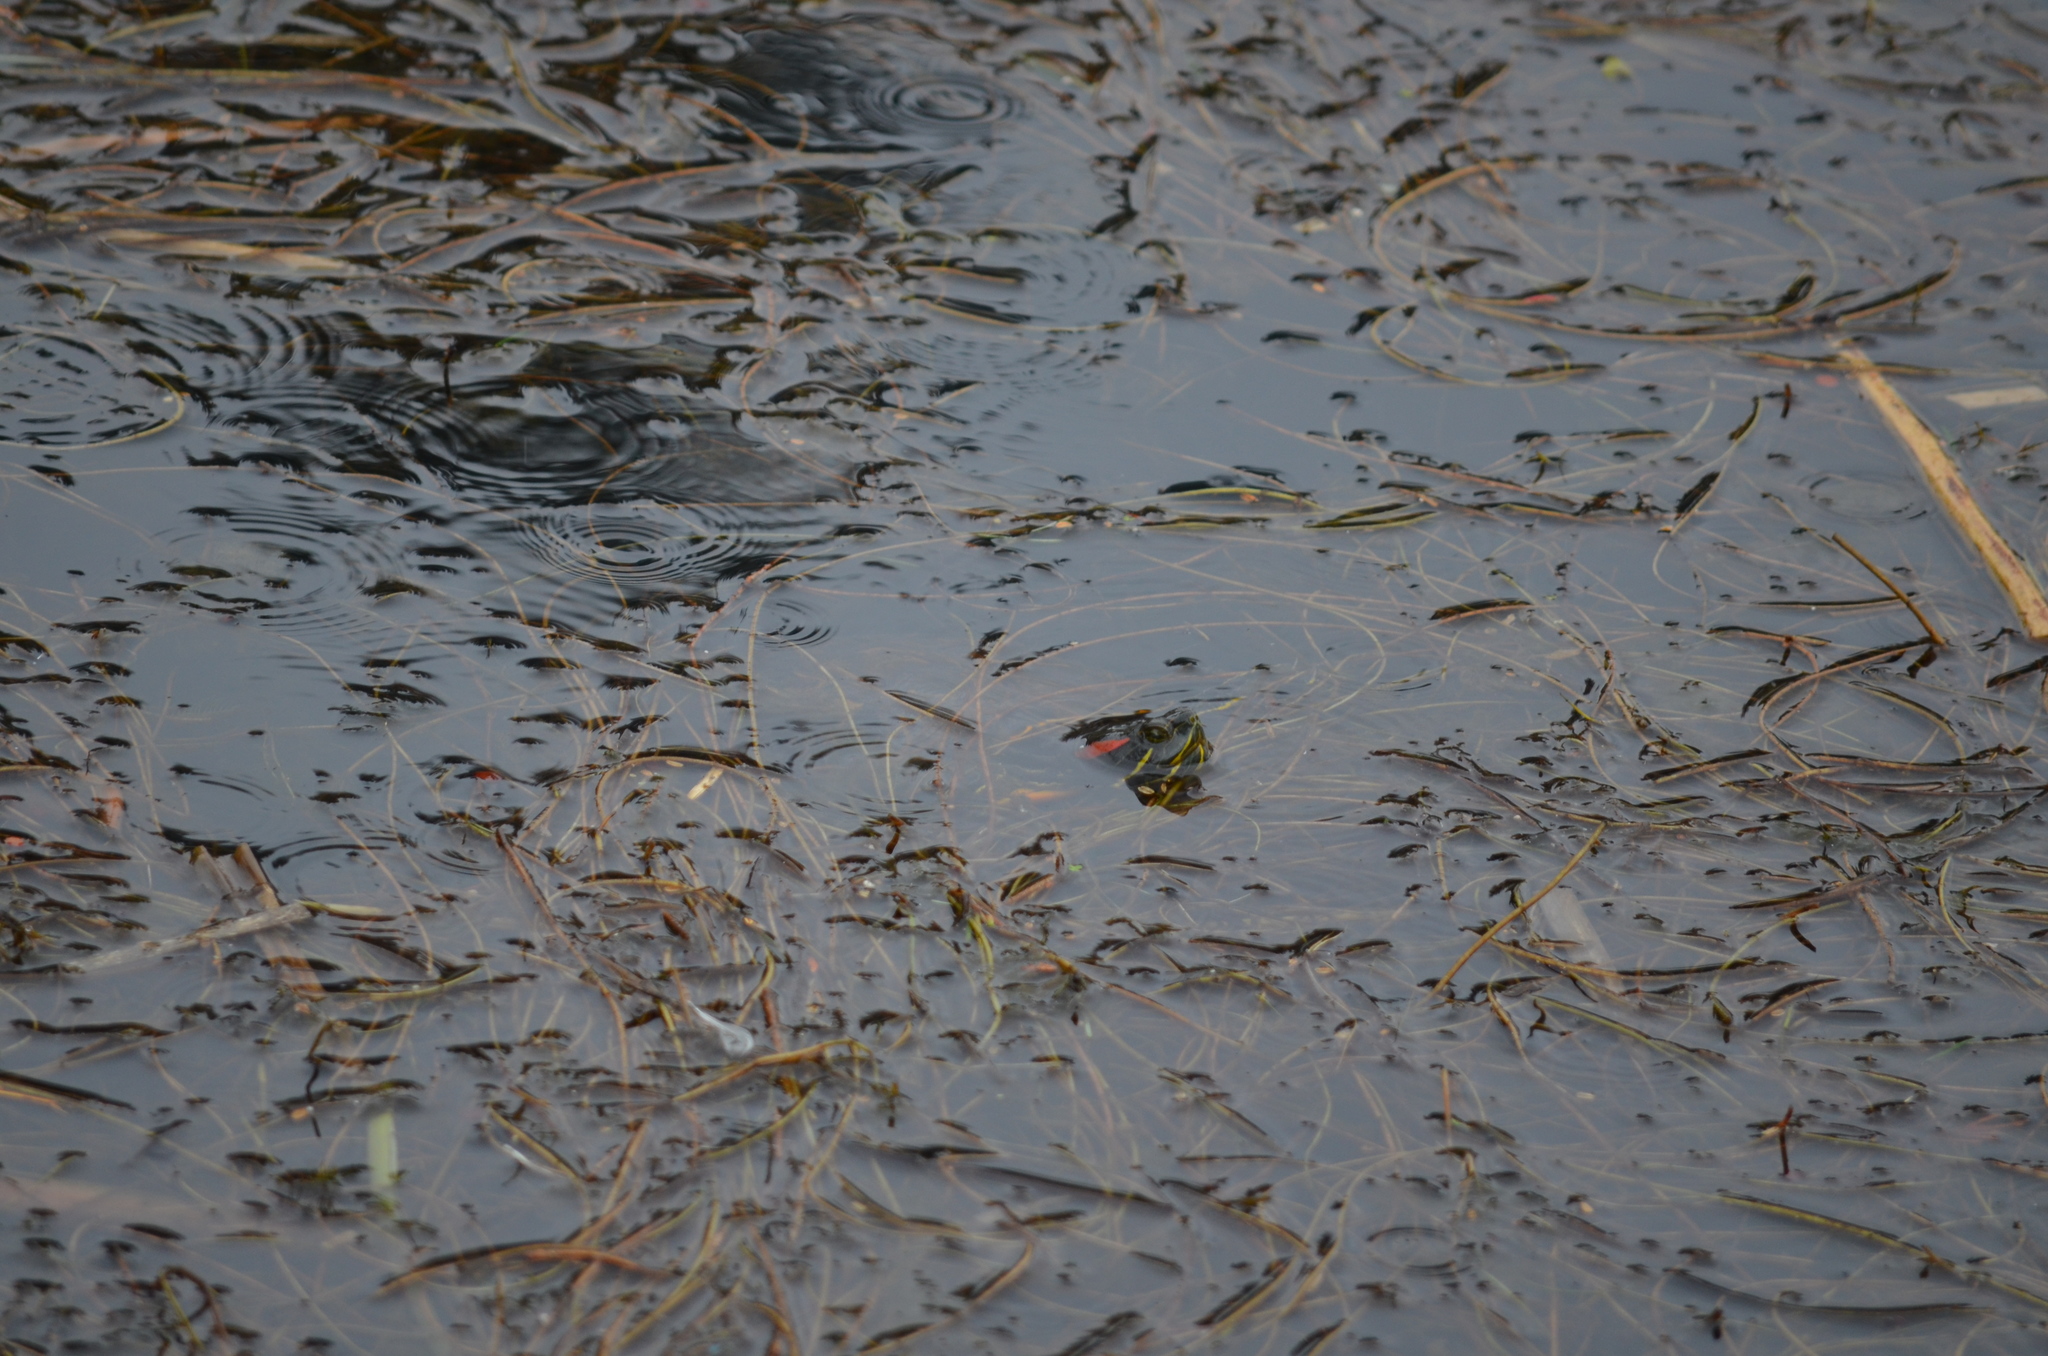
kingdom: Animalia
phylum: Chordata
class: Testudines
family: Emydidae
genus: Trachemys
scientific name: Trachemys scripta
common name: Slider
